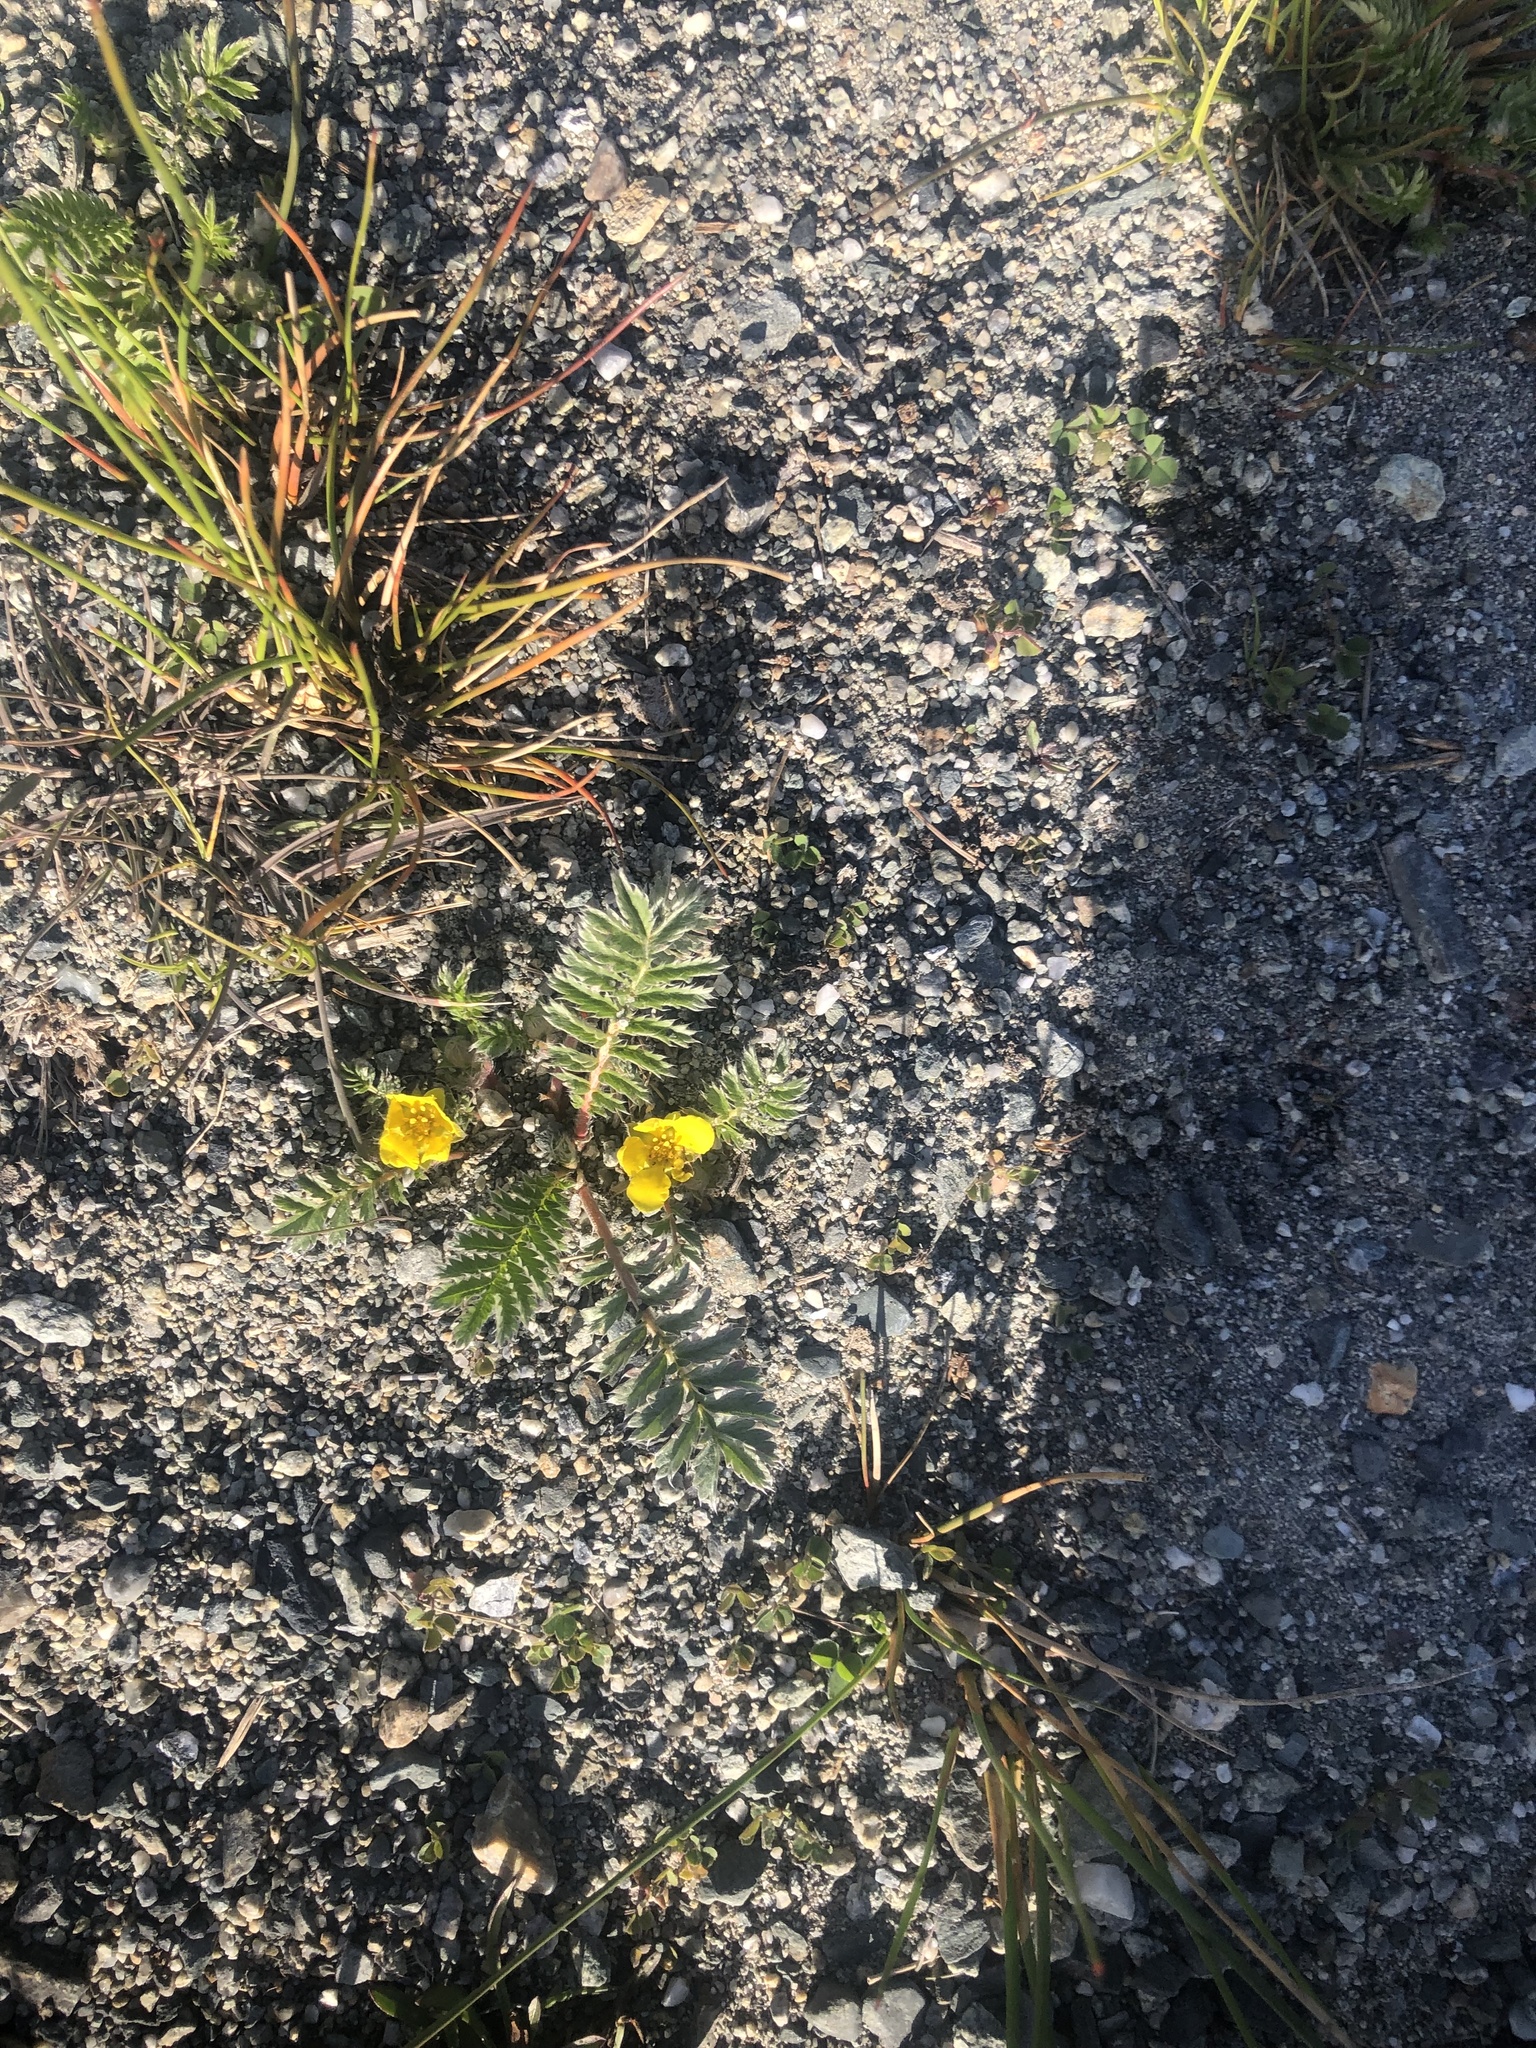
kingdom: Plantae
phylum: Tracheophyta
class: Magnoliopsida
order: Rosales
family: Rosaceae
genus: Argentina
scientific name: Argentina anserina
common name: Common silverweed
